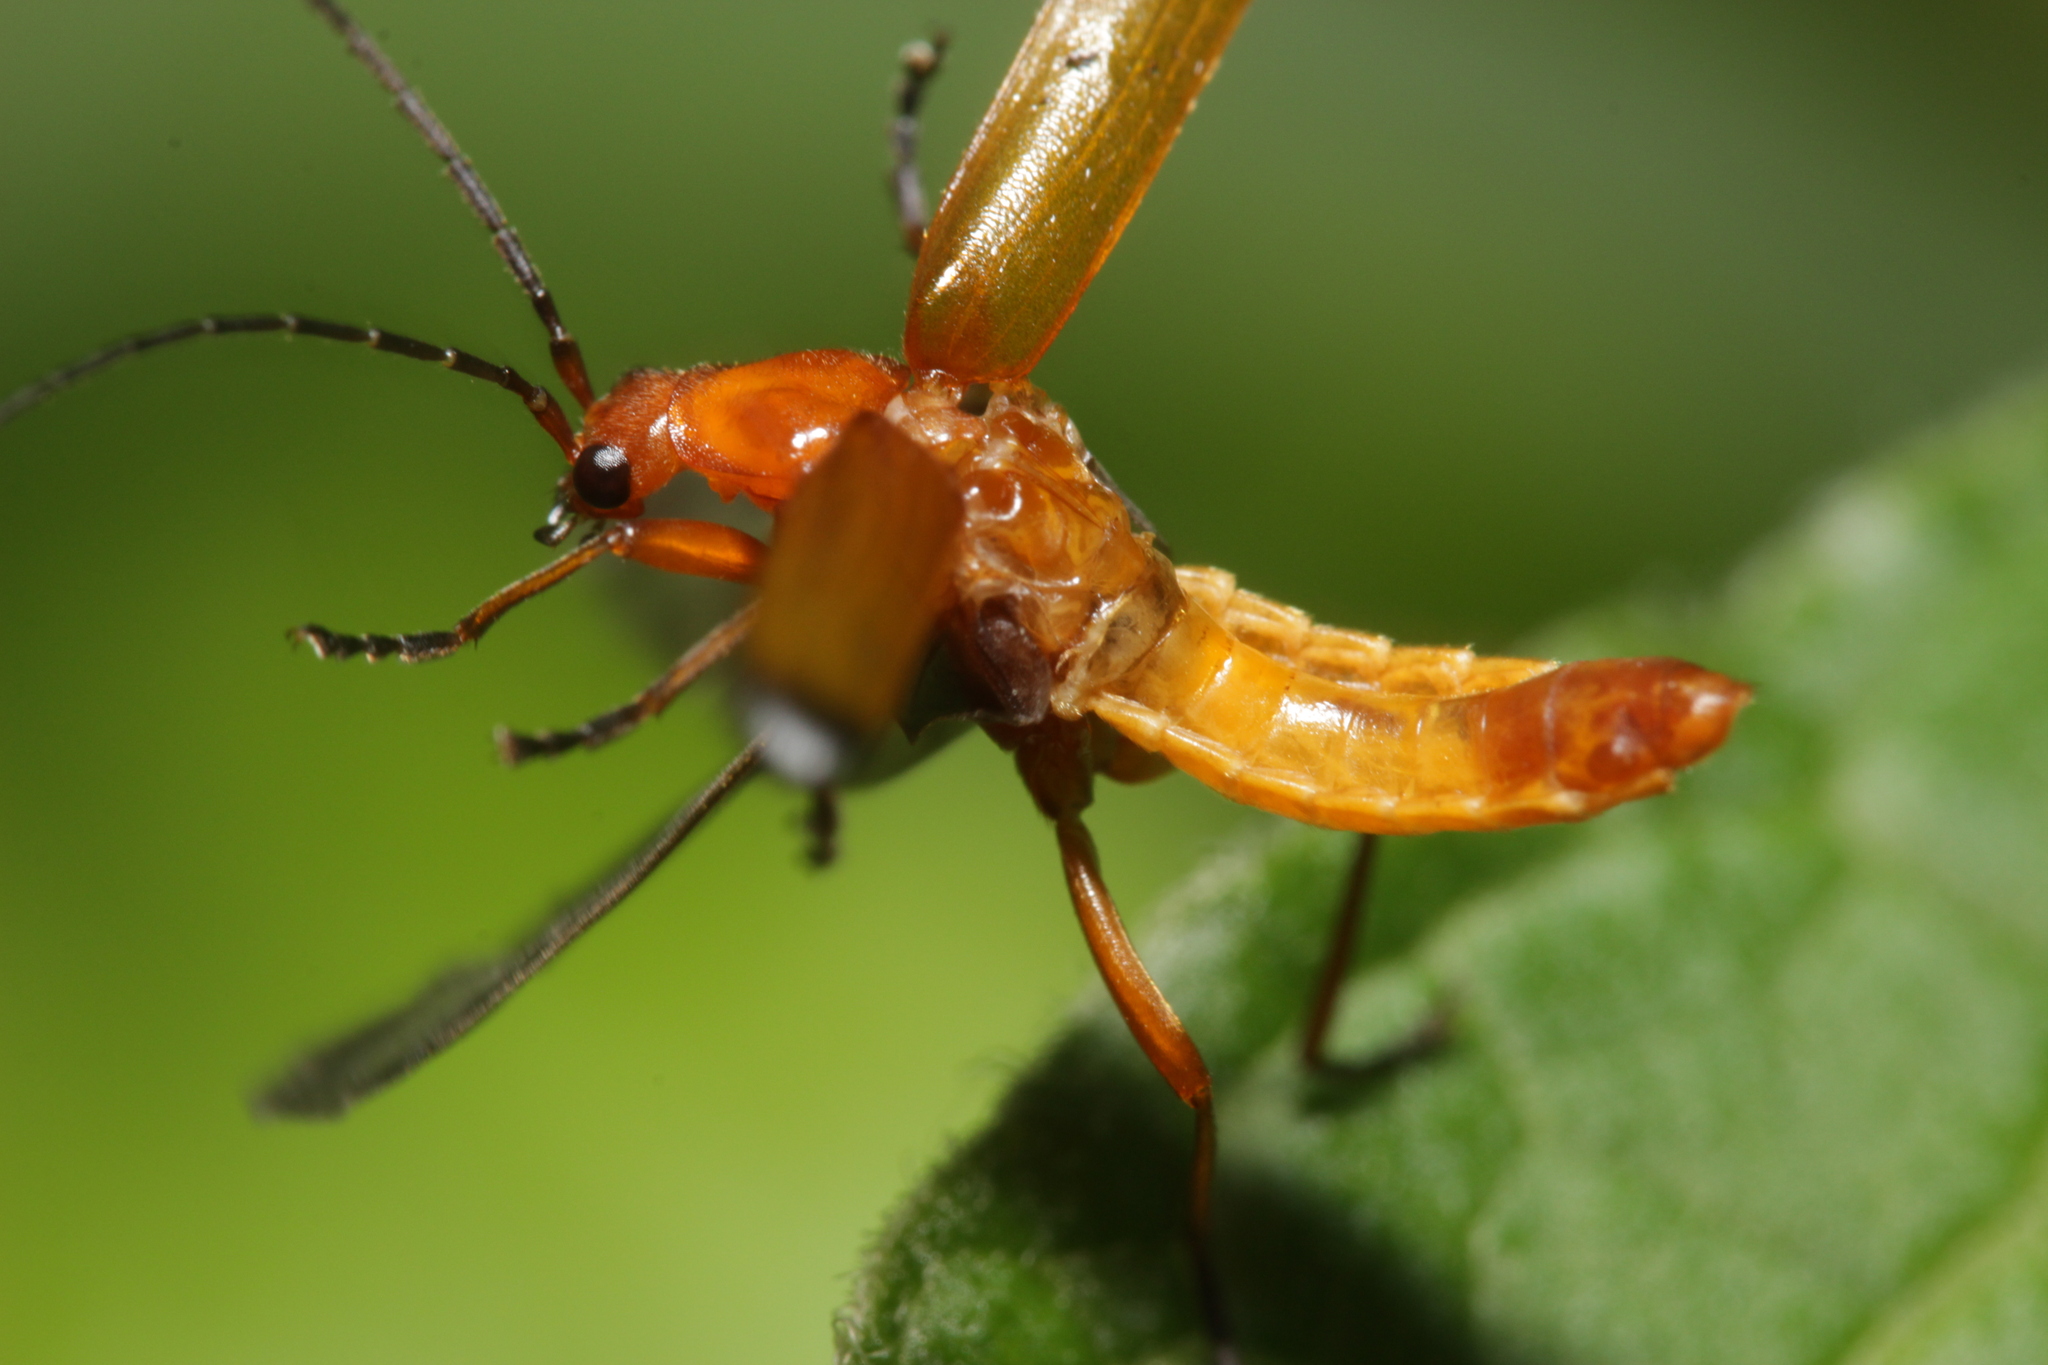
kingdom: Animalia
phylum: Arthropoda
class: Insecta
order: Coleoptera
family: Cantharidae
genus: Rhagonycha
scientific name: Rhagonycha fulva
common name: Common red soldier beetle
